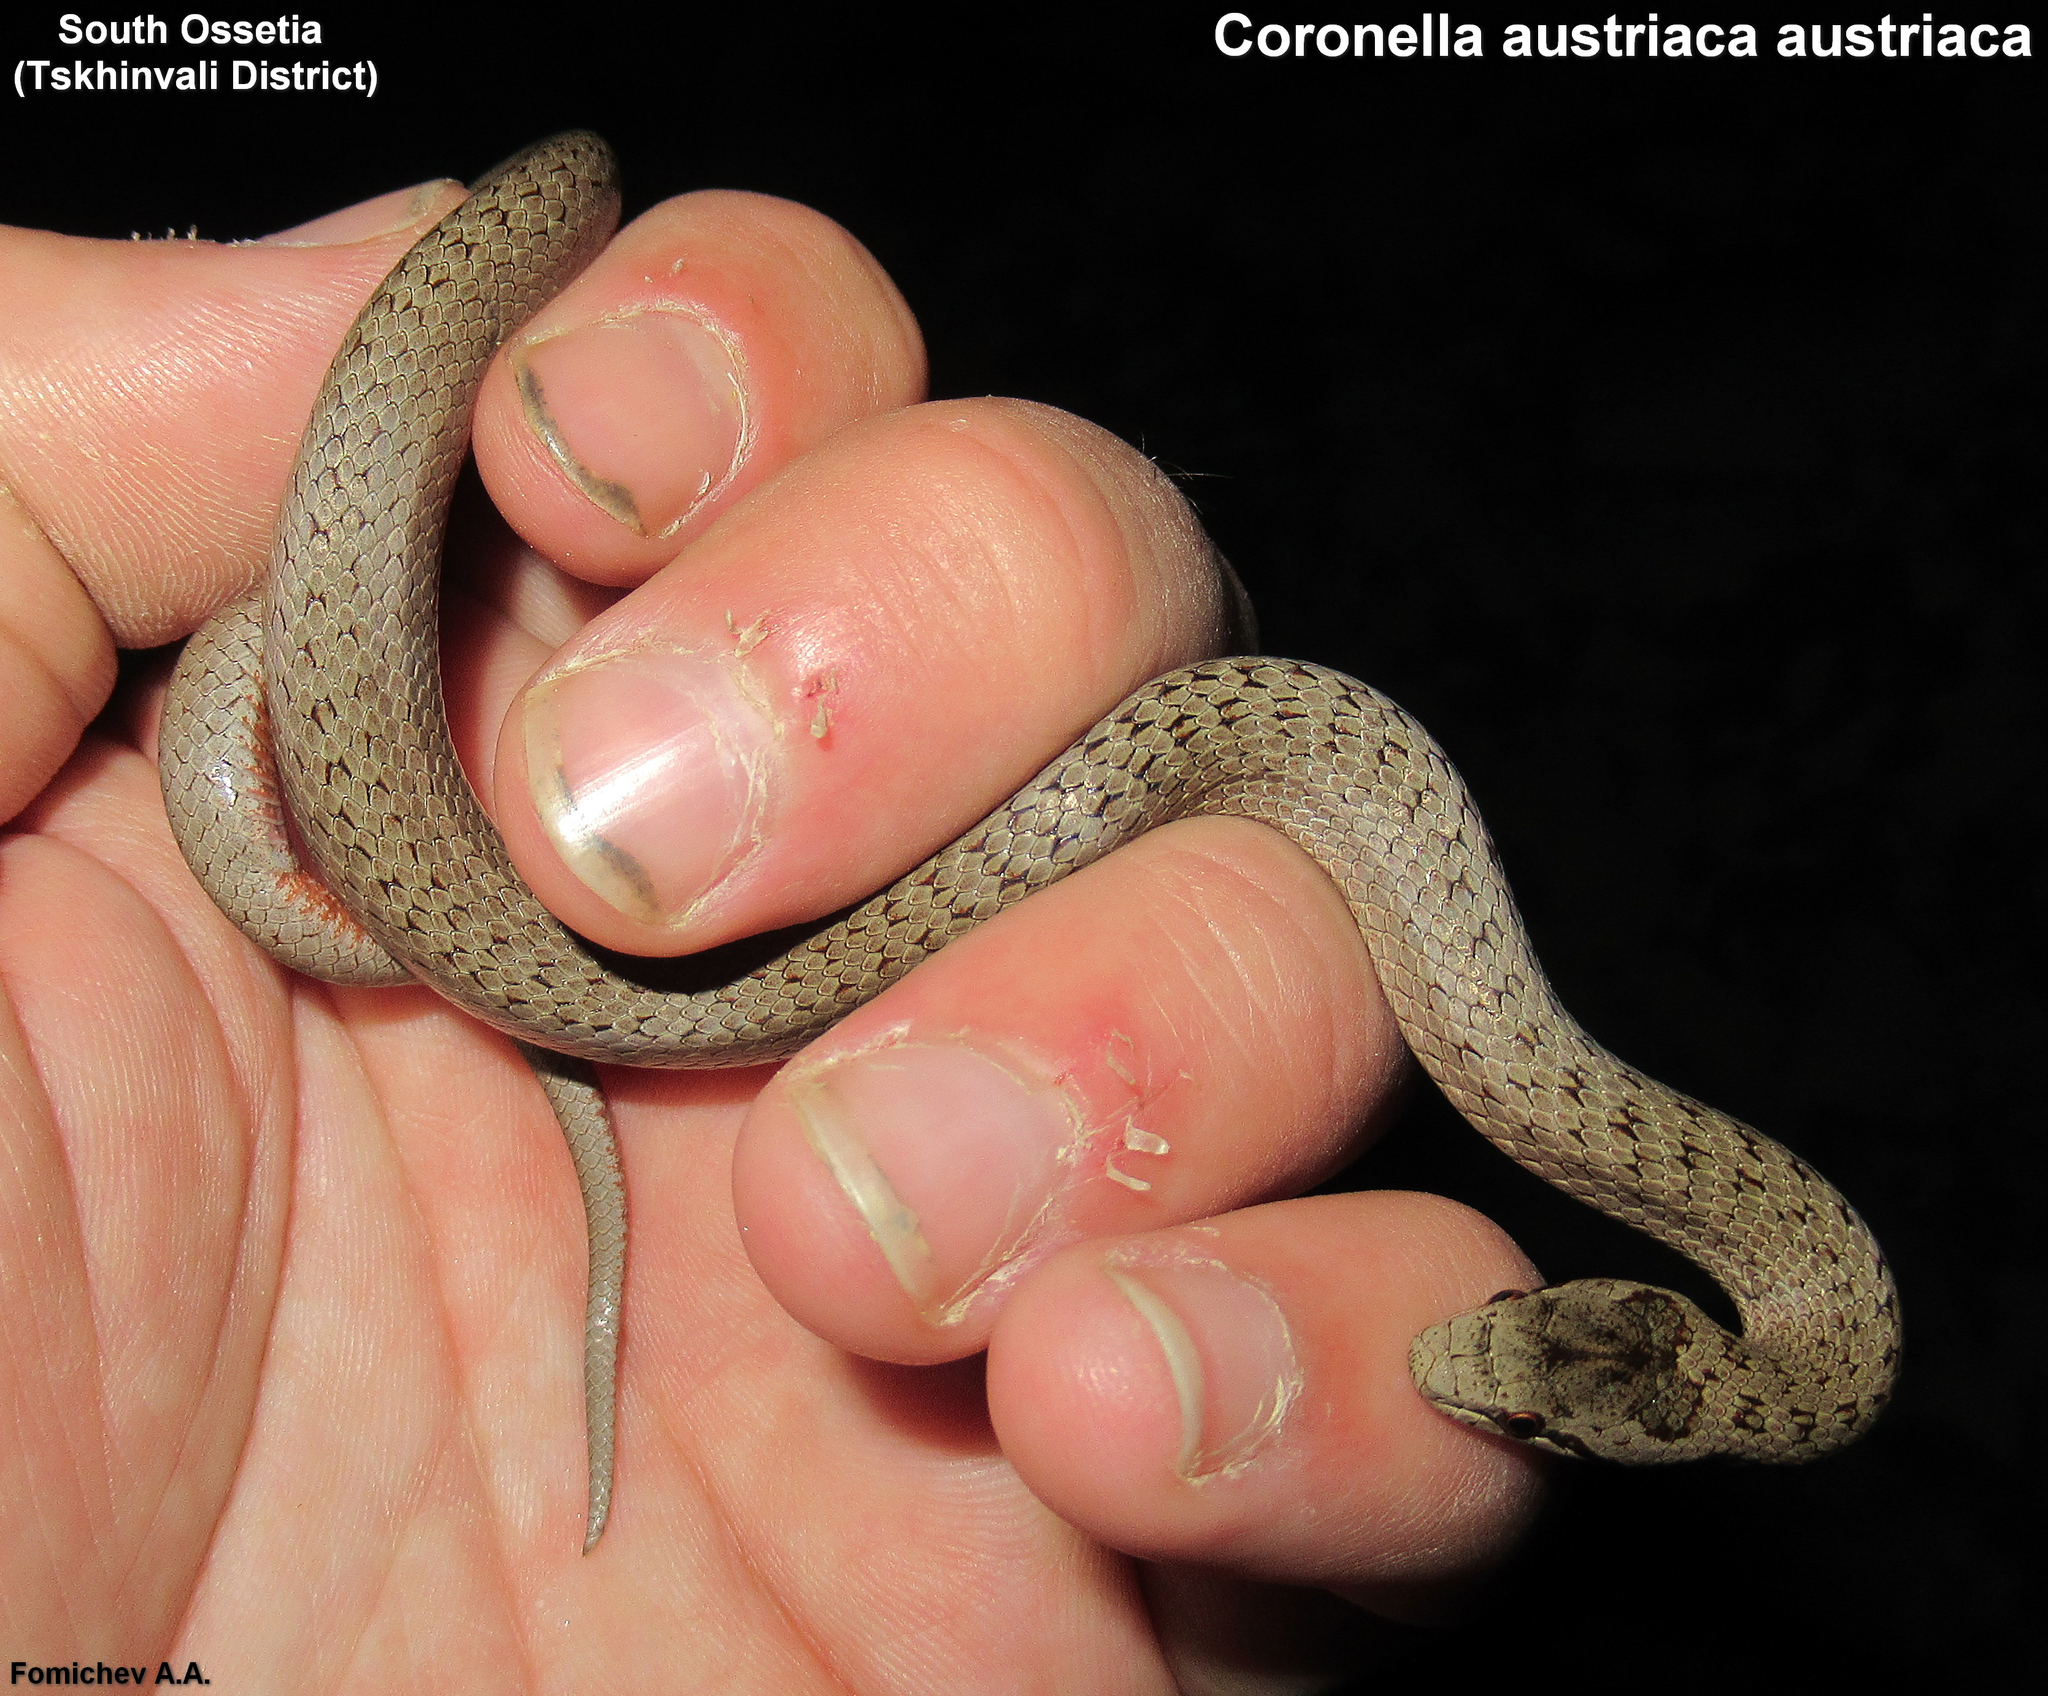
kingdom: Animalia
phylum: Chordata
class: Squamata
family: Colubridae
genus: Coronella
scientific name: Coronella austriaca
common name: Smooth snake
